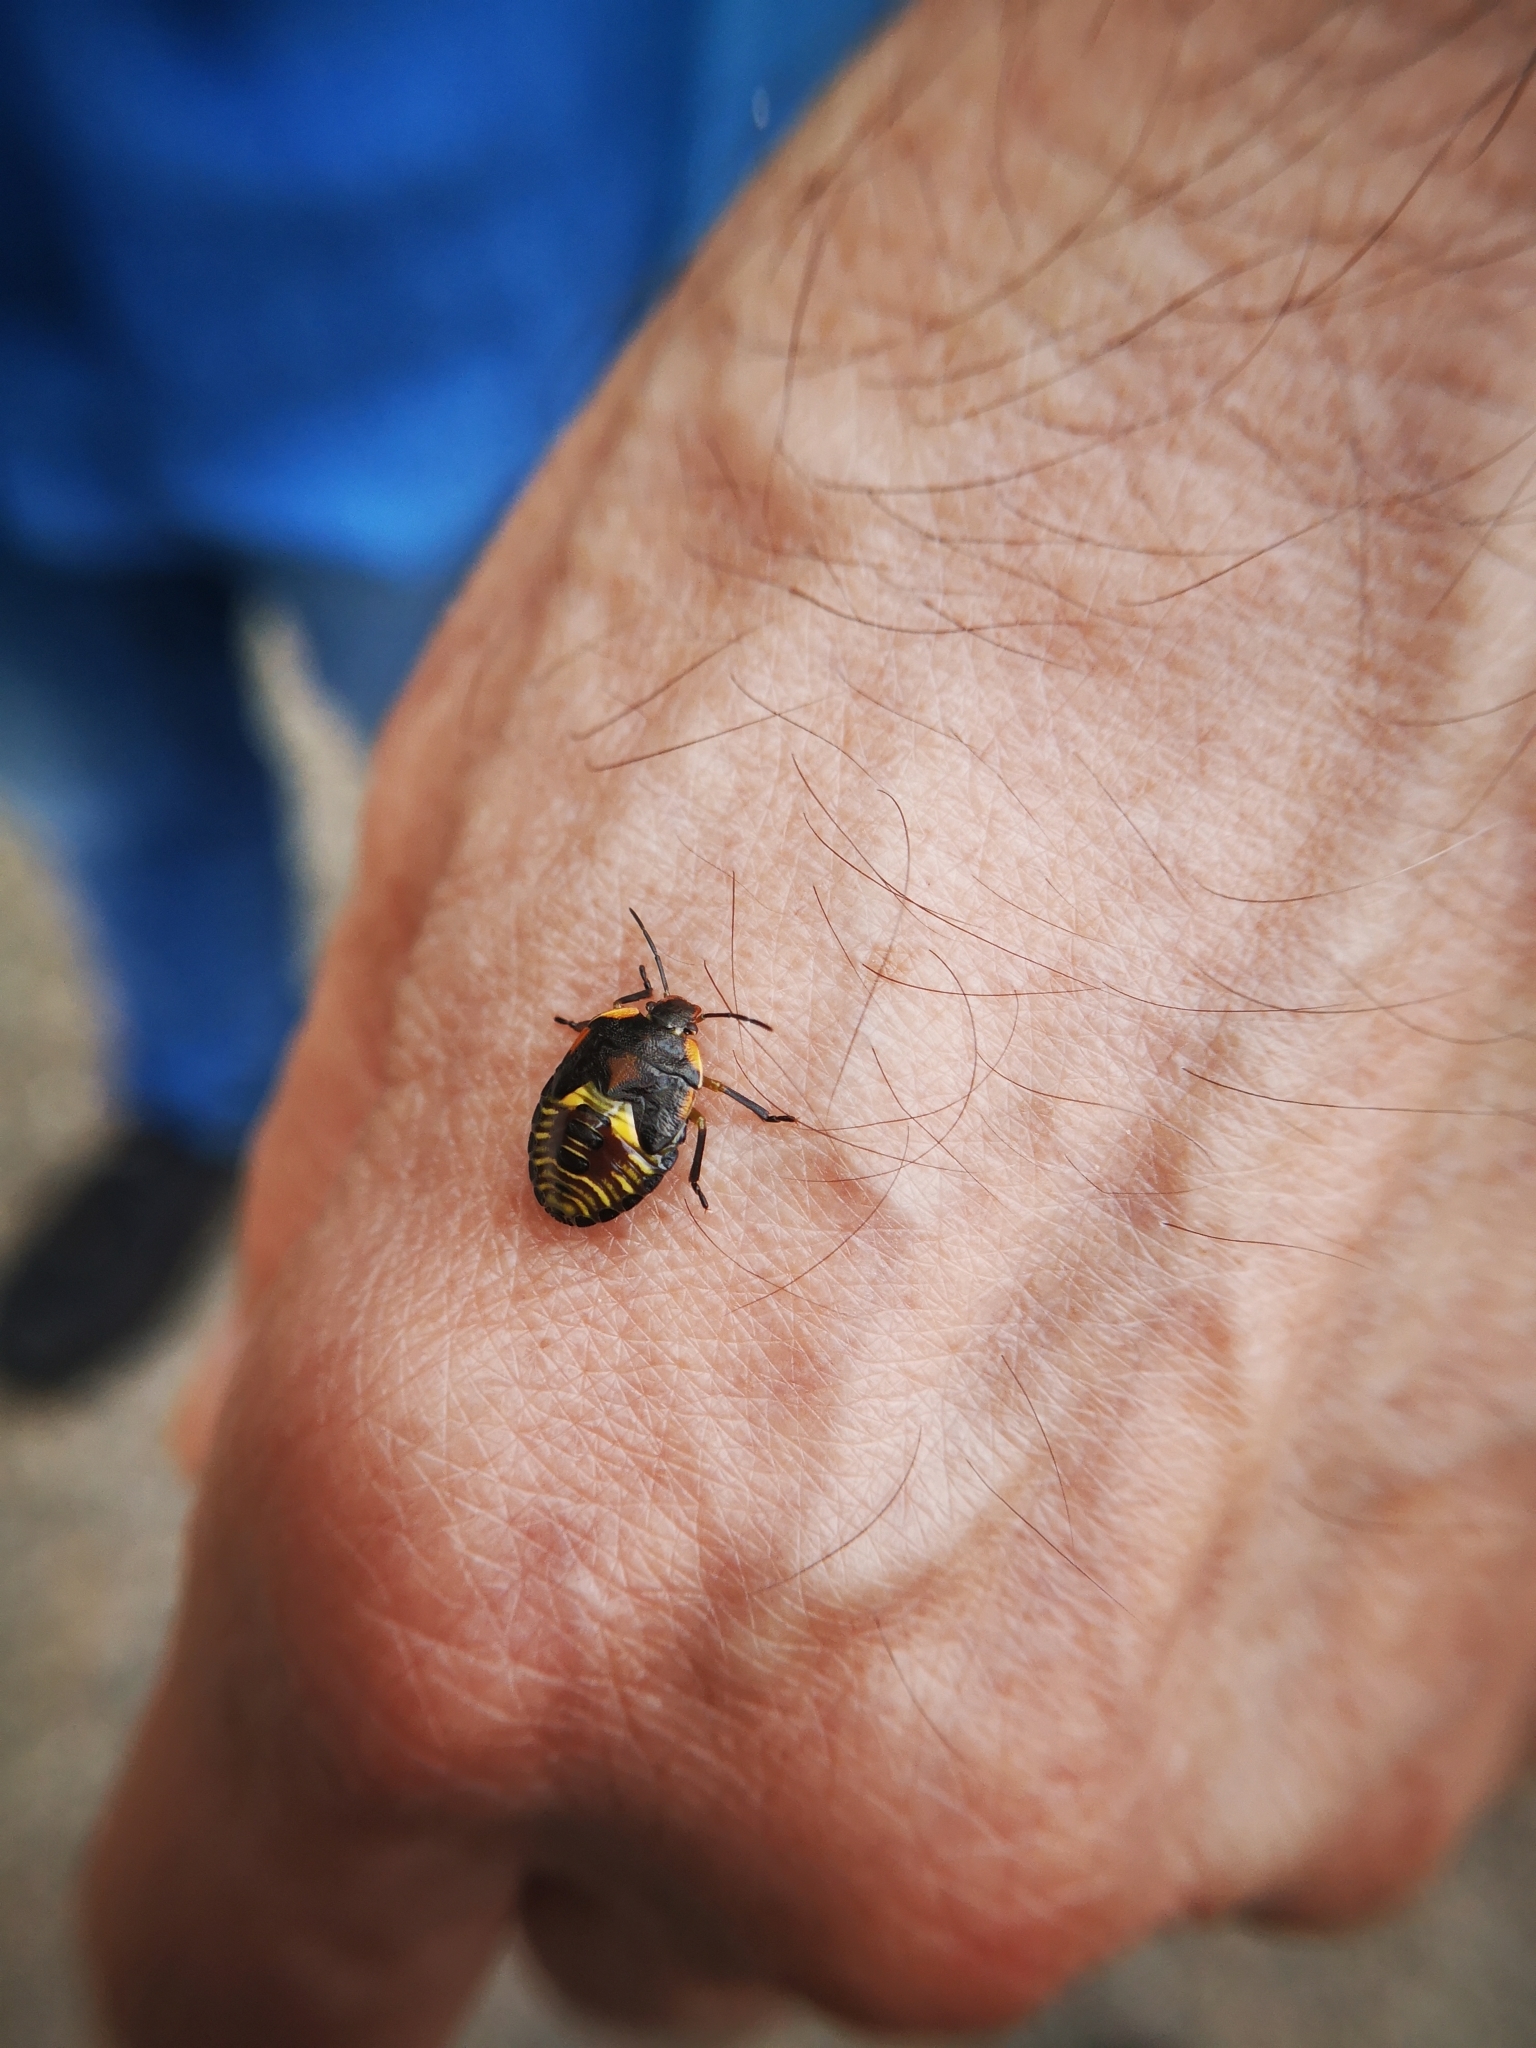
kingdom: Animalia
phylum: Arthropoda
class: Insecta
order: Hemiptera
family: Pentatomidae
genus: Chinavia
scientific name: Chinavia hilaris
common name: Green stink bug
